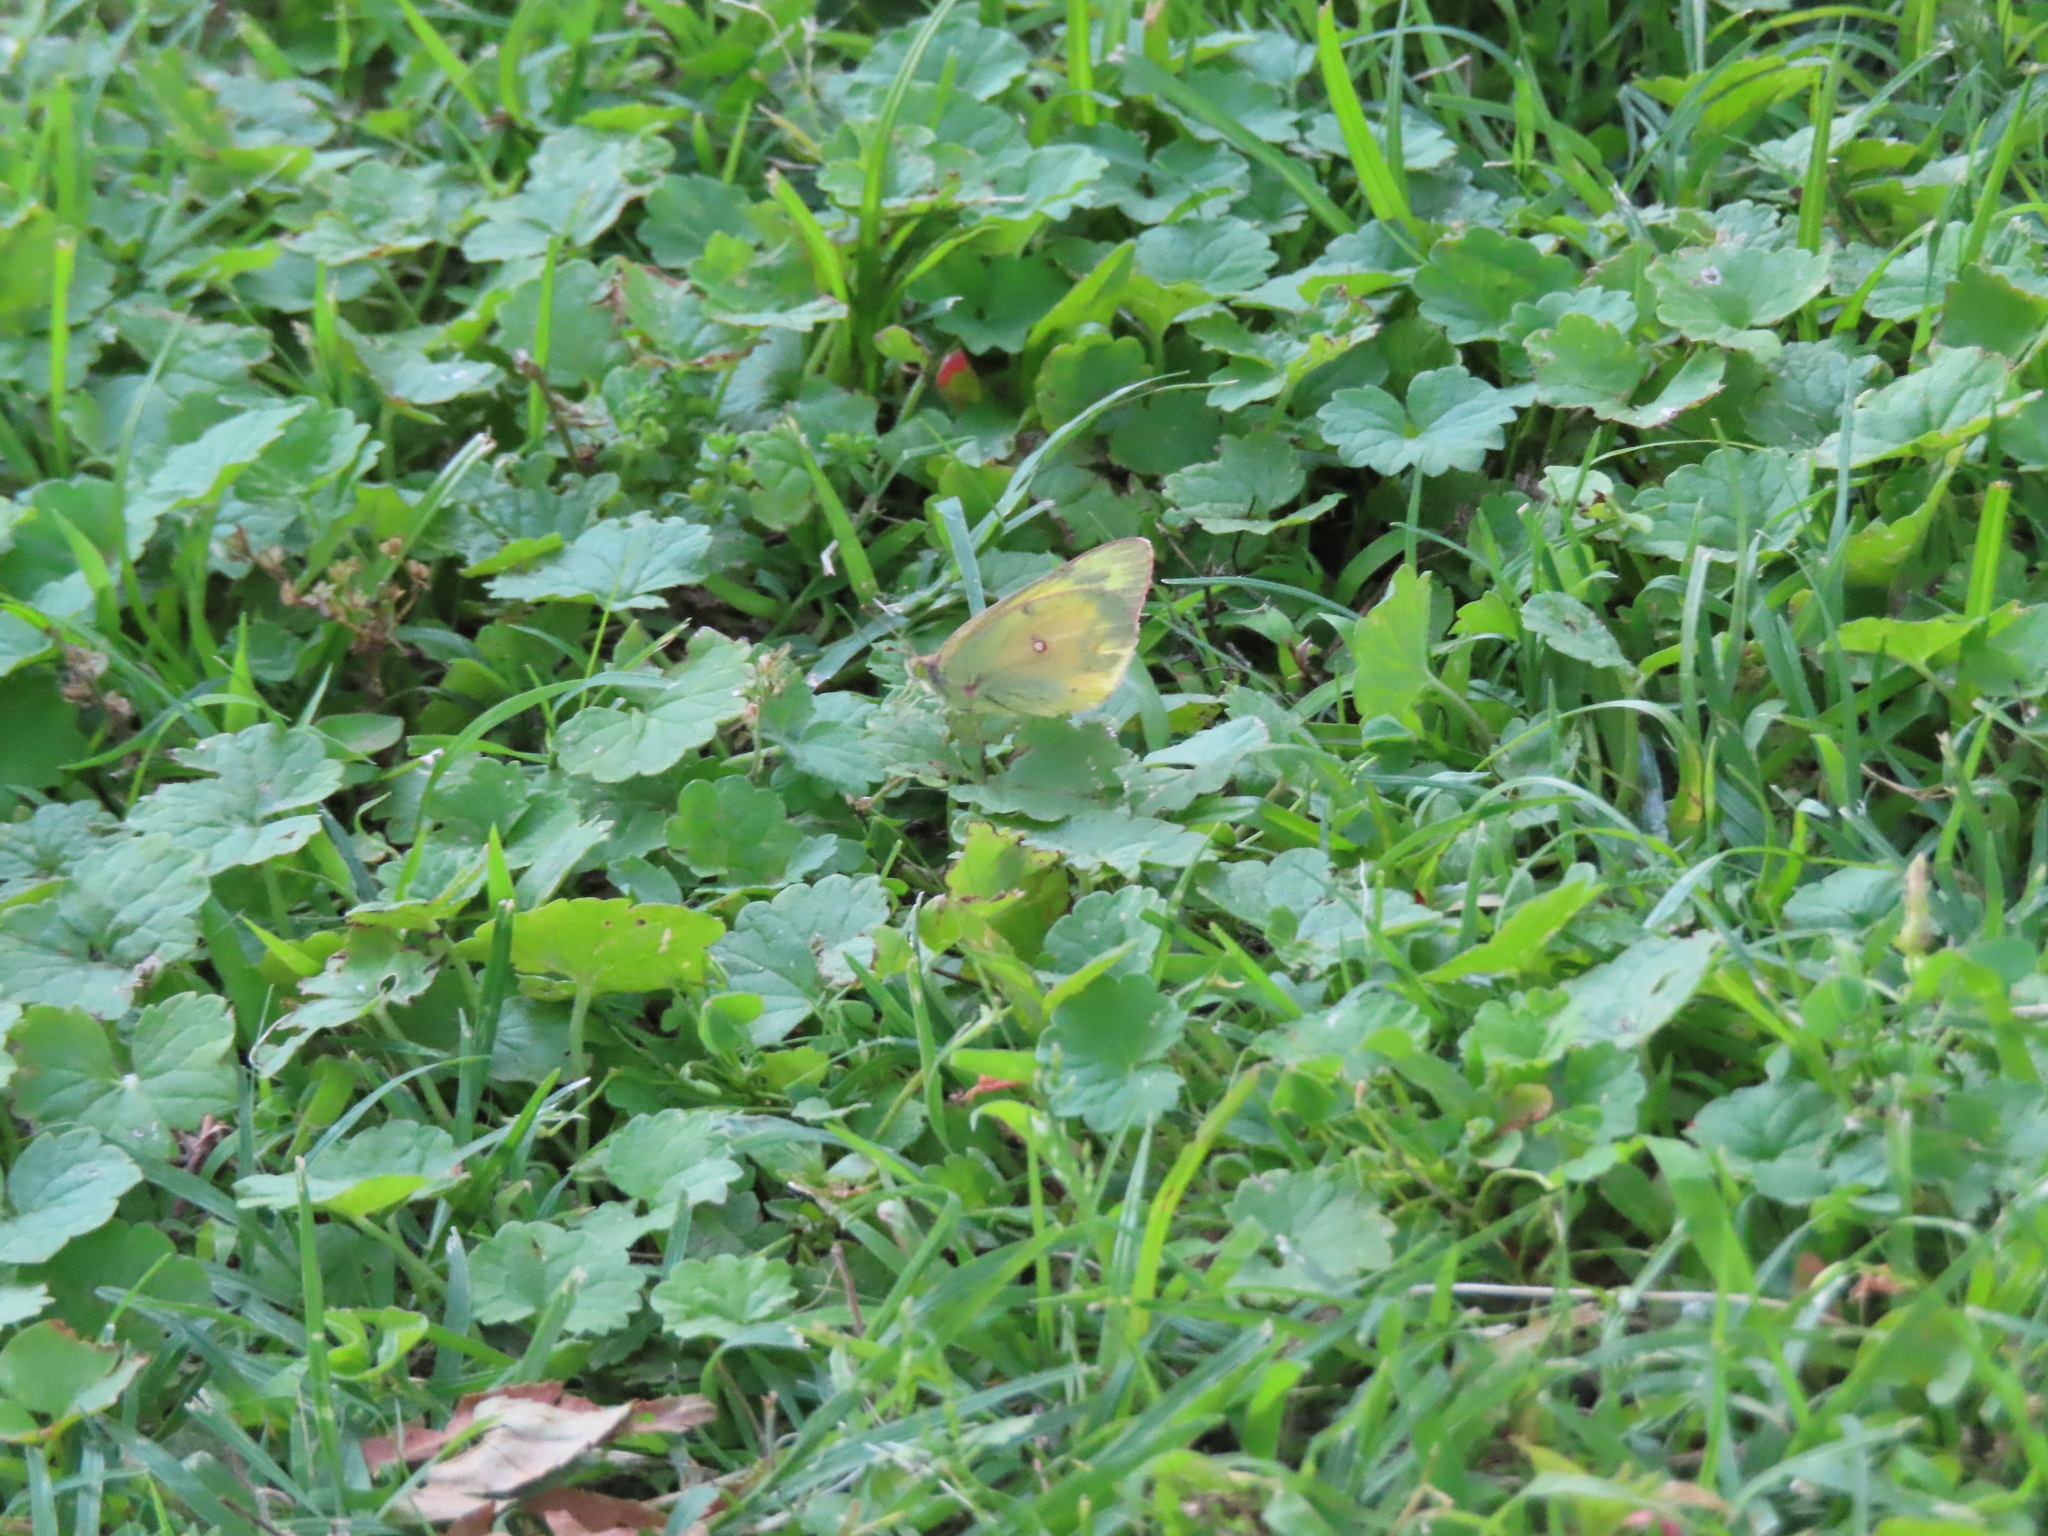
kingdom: Animalia
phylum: Arthropoda
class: Insecta
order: Lepidoptera
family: Pieridae
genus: Colias
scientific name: Colias eurytheme
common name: Alfalfa butterfly
